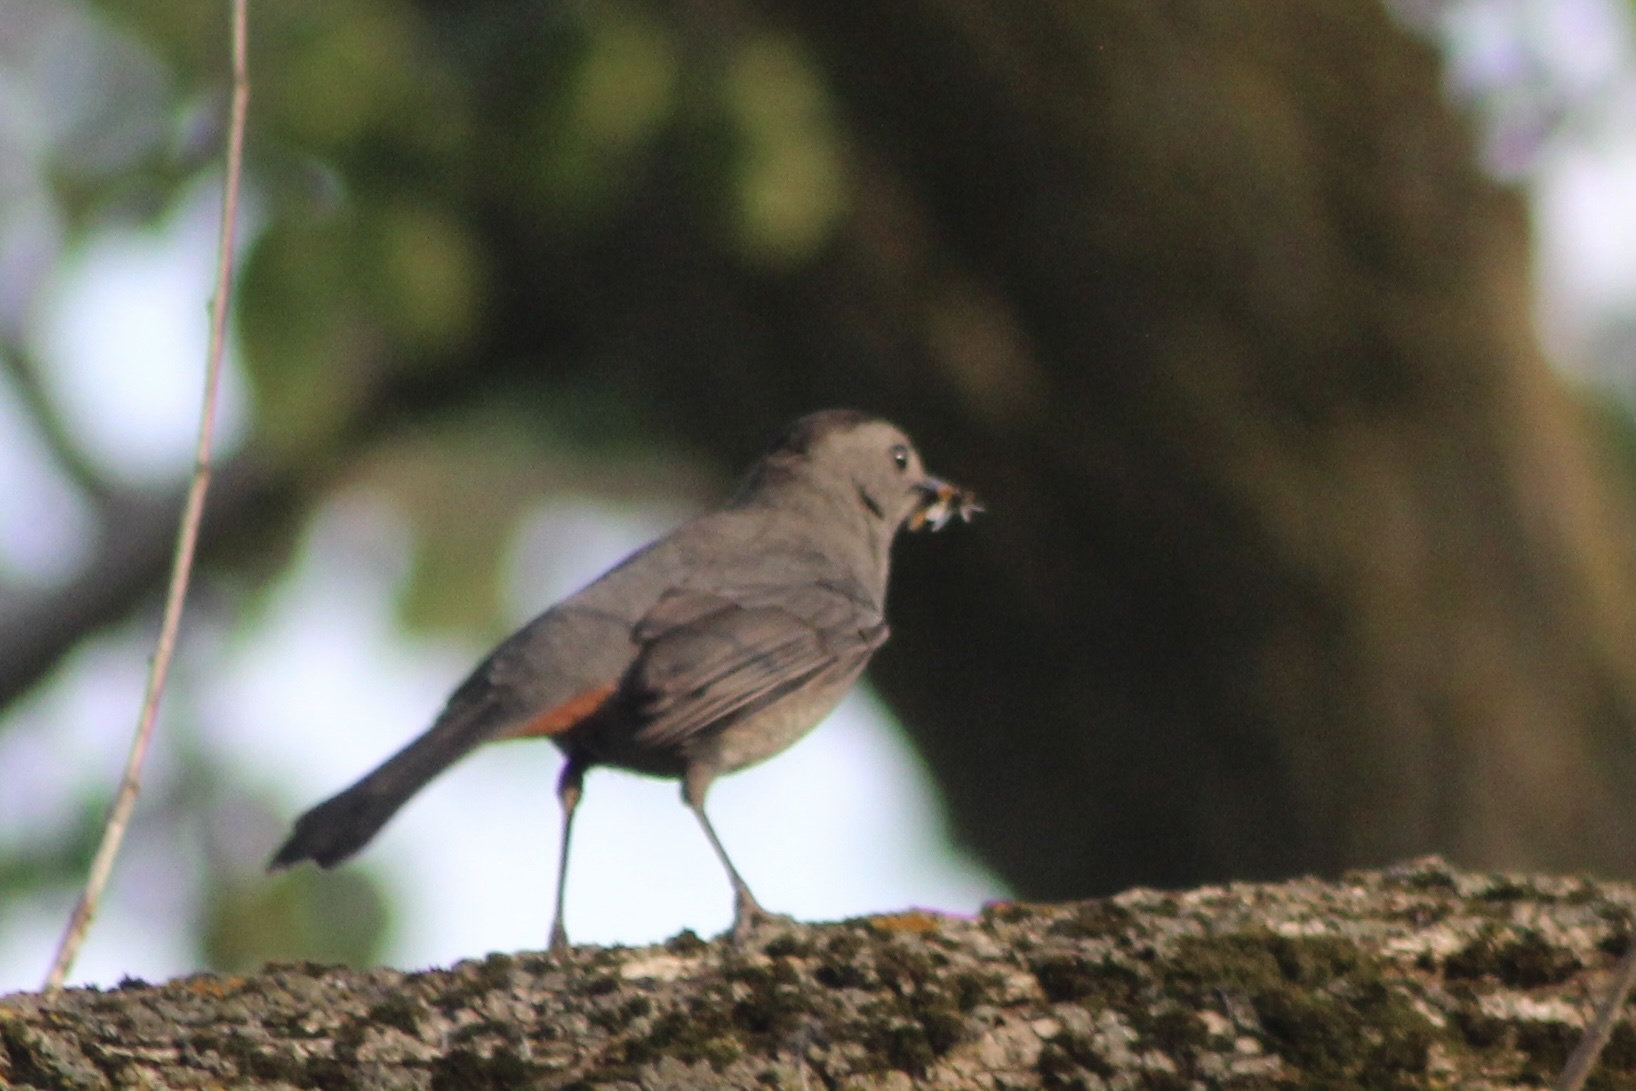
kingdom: Animalia
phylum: Chordata
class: Aves
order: Passeriformes
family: Mimidae
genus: Dumetella
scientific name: Dumetella carolinensis
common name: Gray catbird
